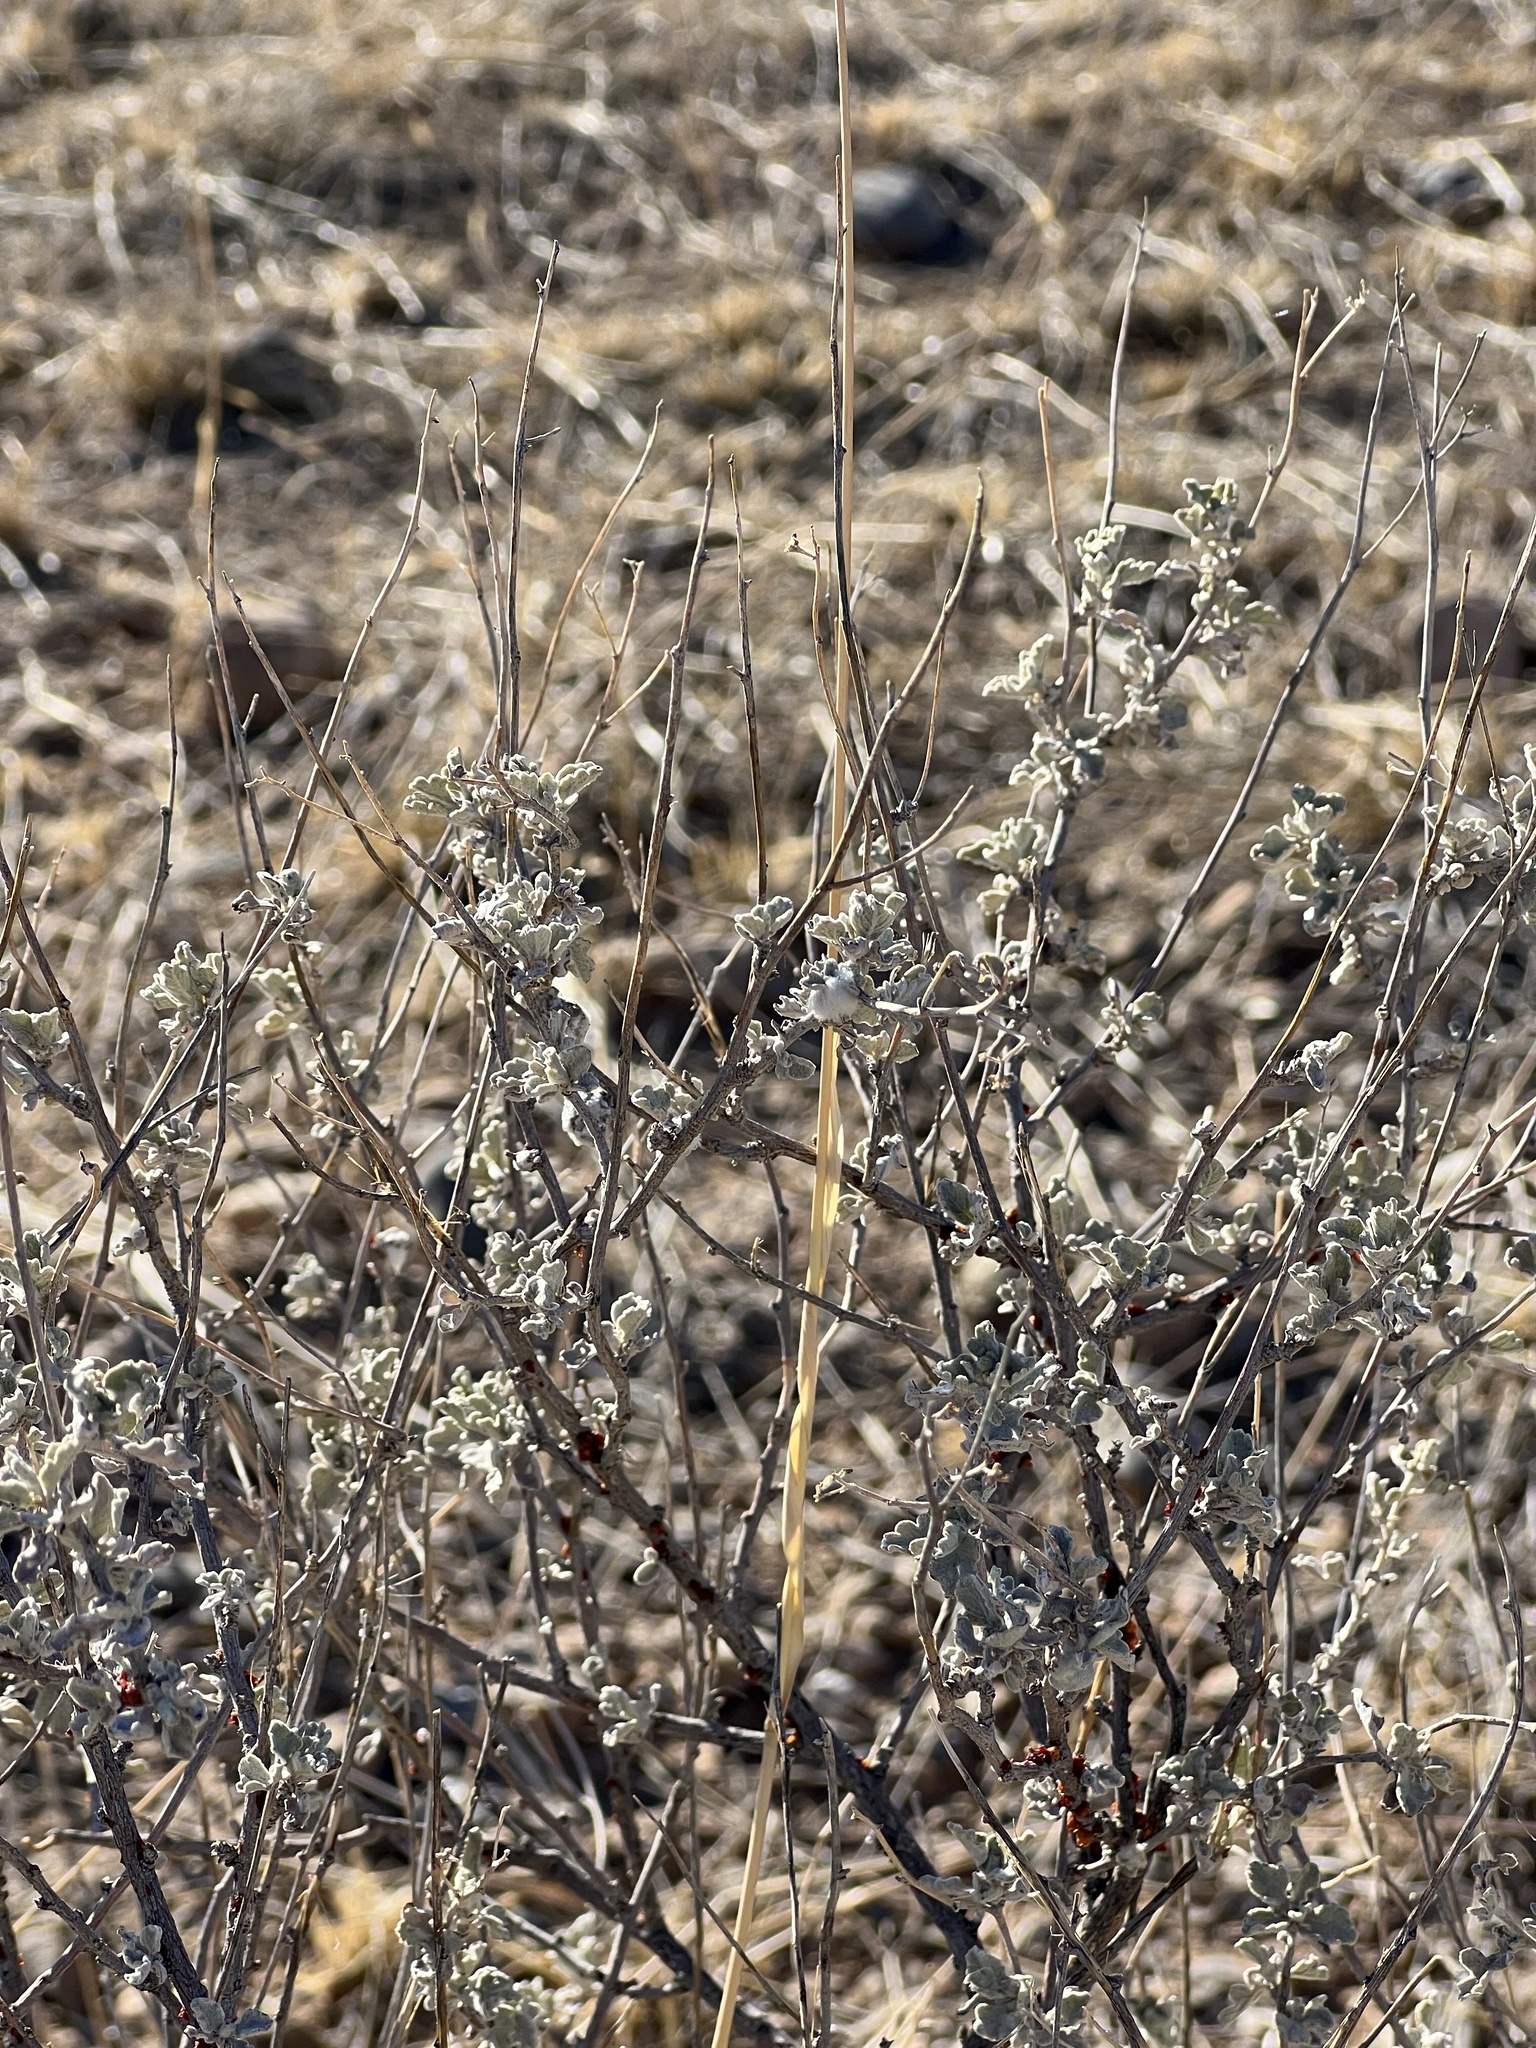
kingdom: Plantae
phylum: Tracheophyta
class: Magnoliopsida
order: Asterales
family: Asteraceae
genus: Parthenium
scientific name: Parthenium incanum
